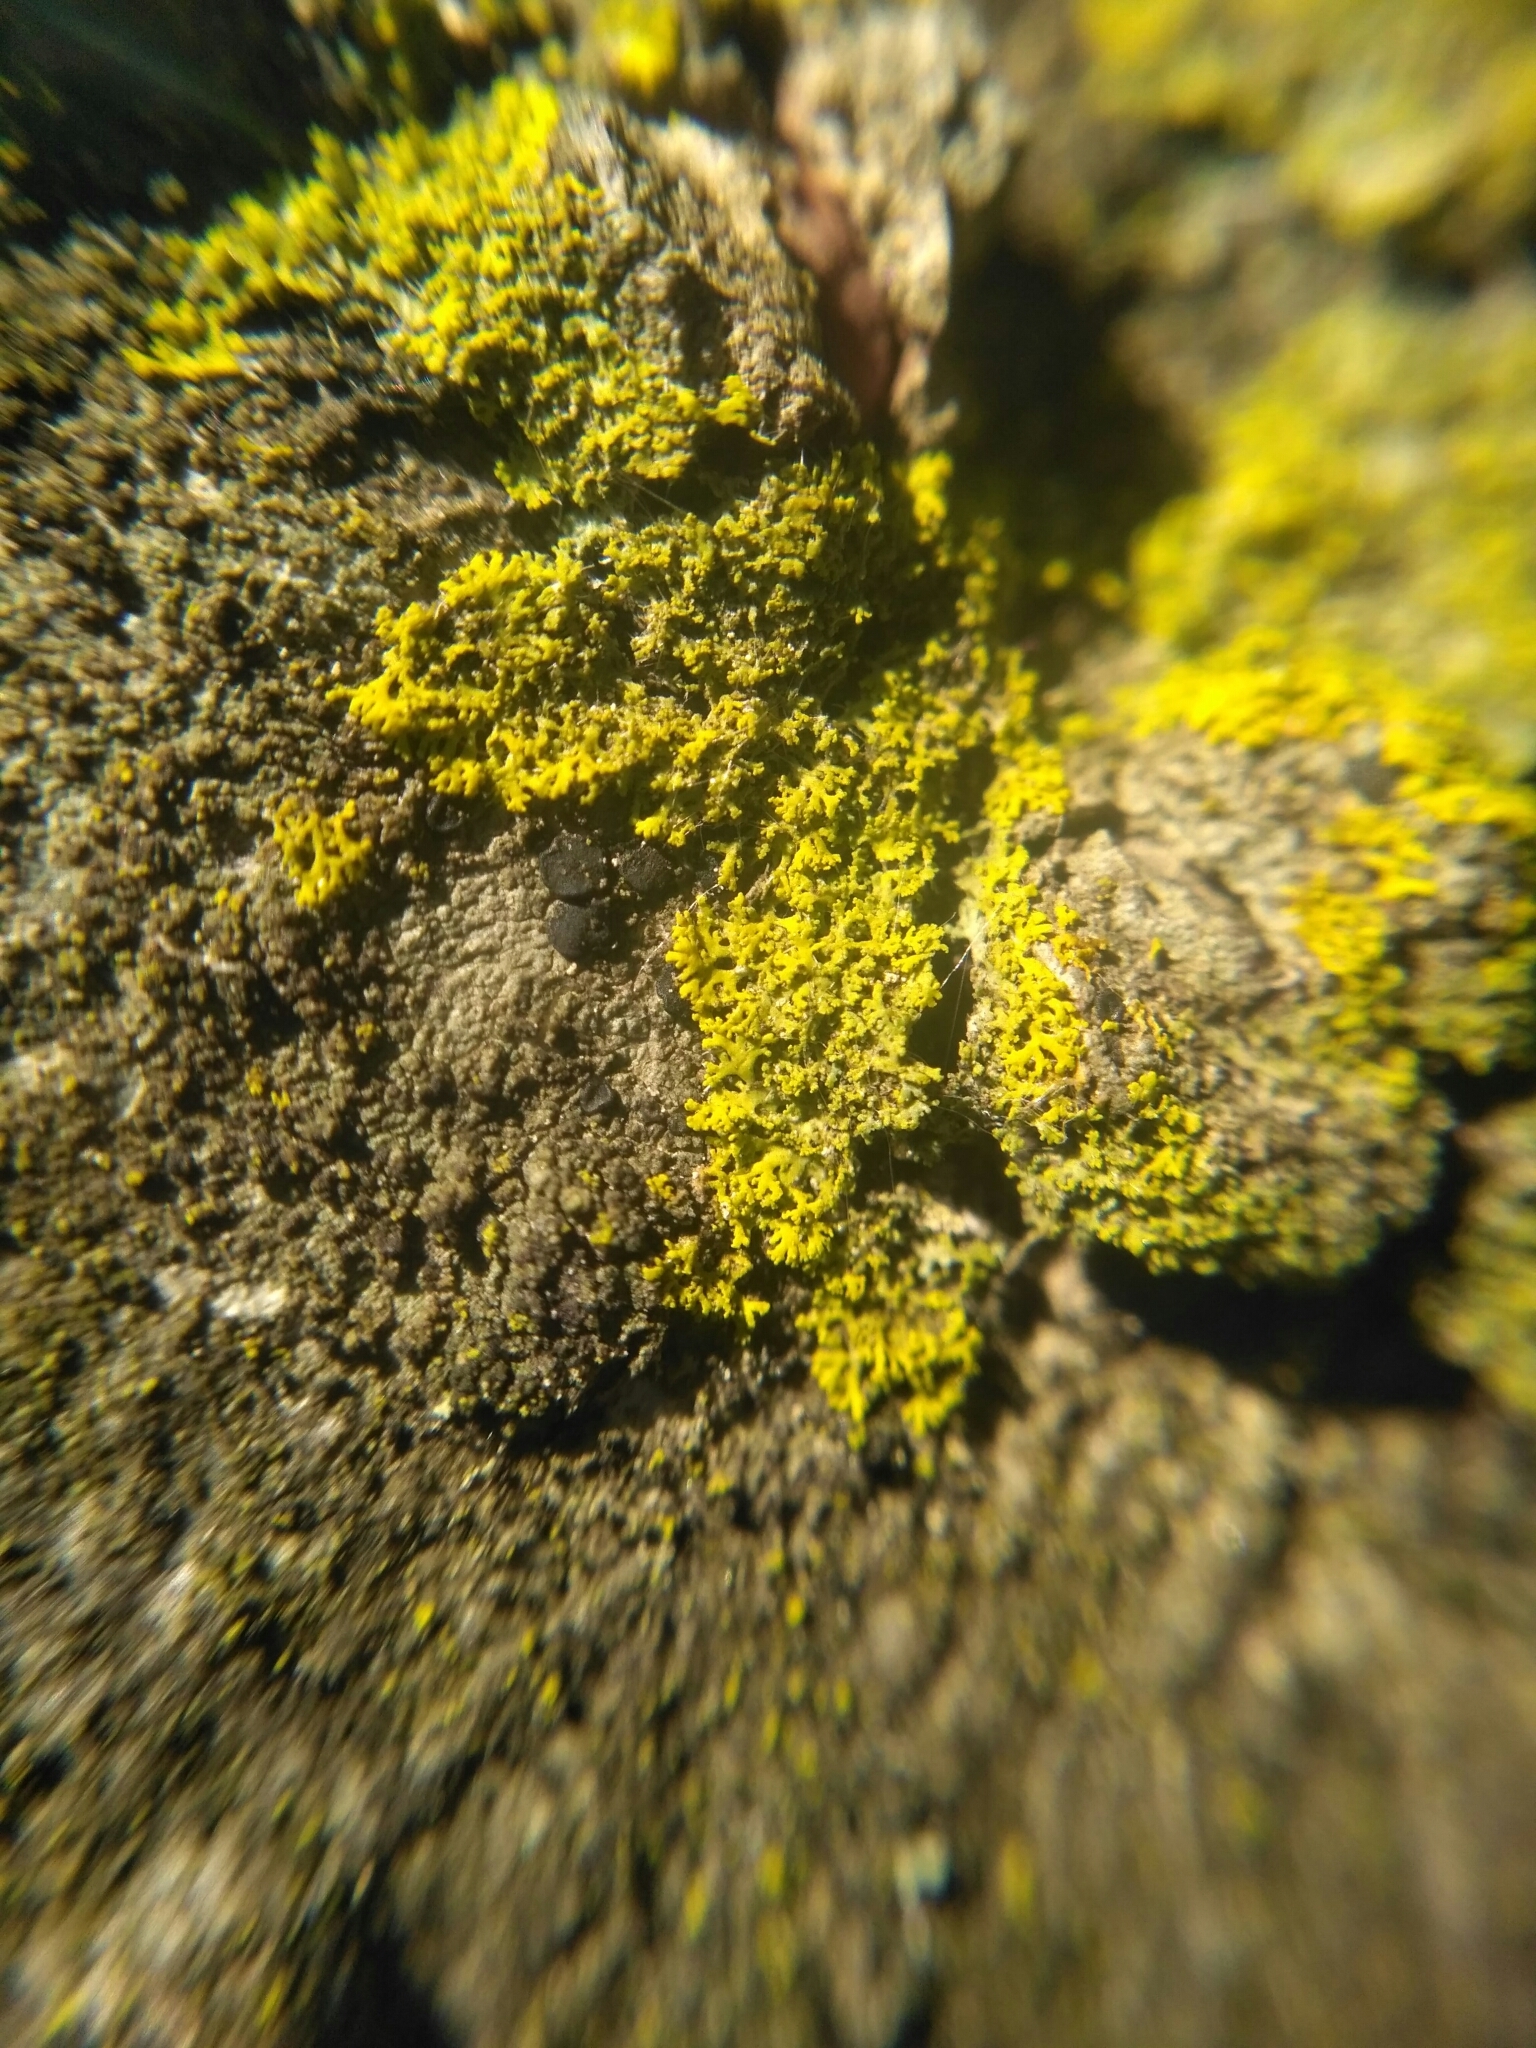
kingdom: Fungi
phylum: Ascomycota
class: Candelariomycetes
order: Candelariales
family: Candelariaceae
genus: Candelaria
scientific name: Candelaria concolor
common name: Candleflame lichen
